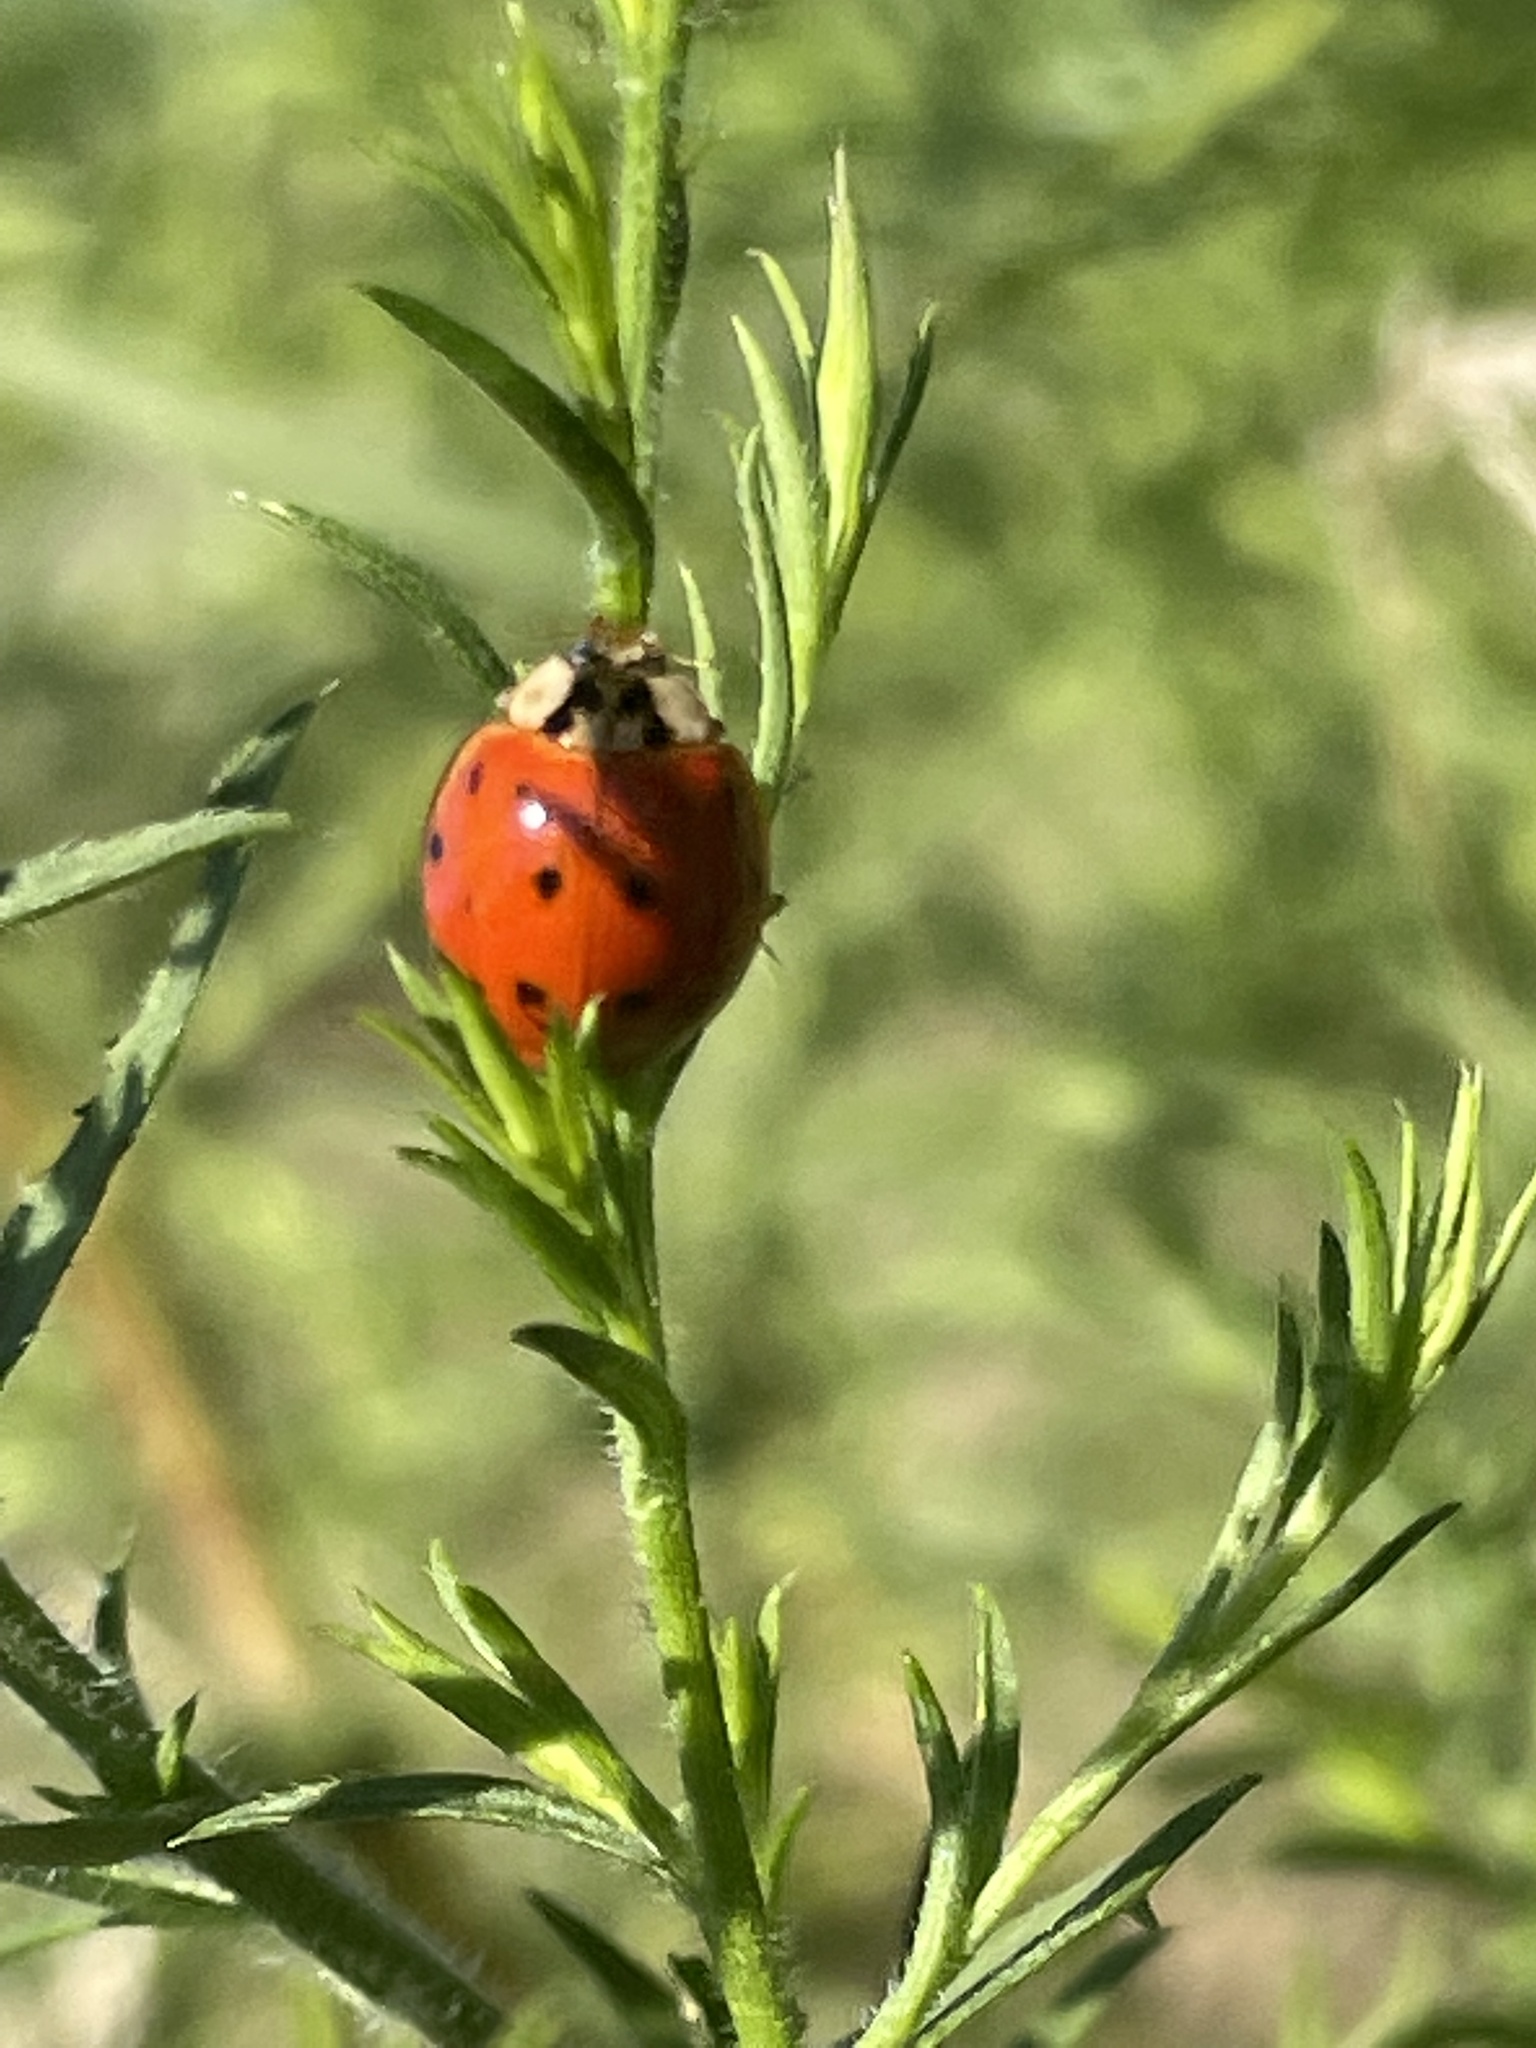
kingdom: Animalia
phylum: Arthropoda
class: Insecta
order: Coleoptera
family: Coccinellidae
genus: Harmonia
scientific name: Harmonia axyridis
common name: Harlequin ladybird
